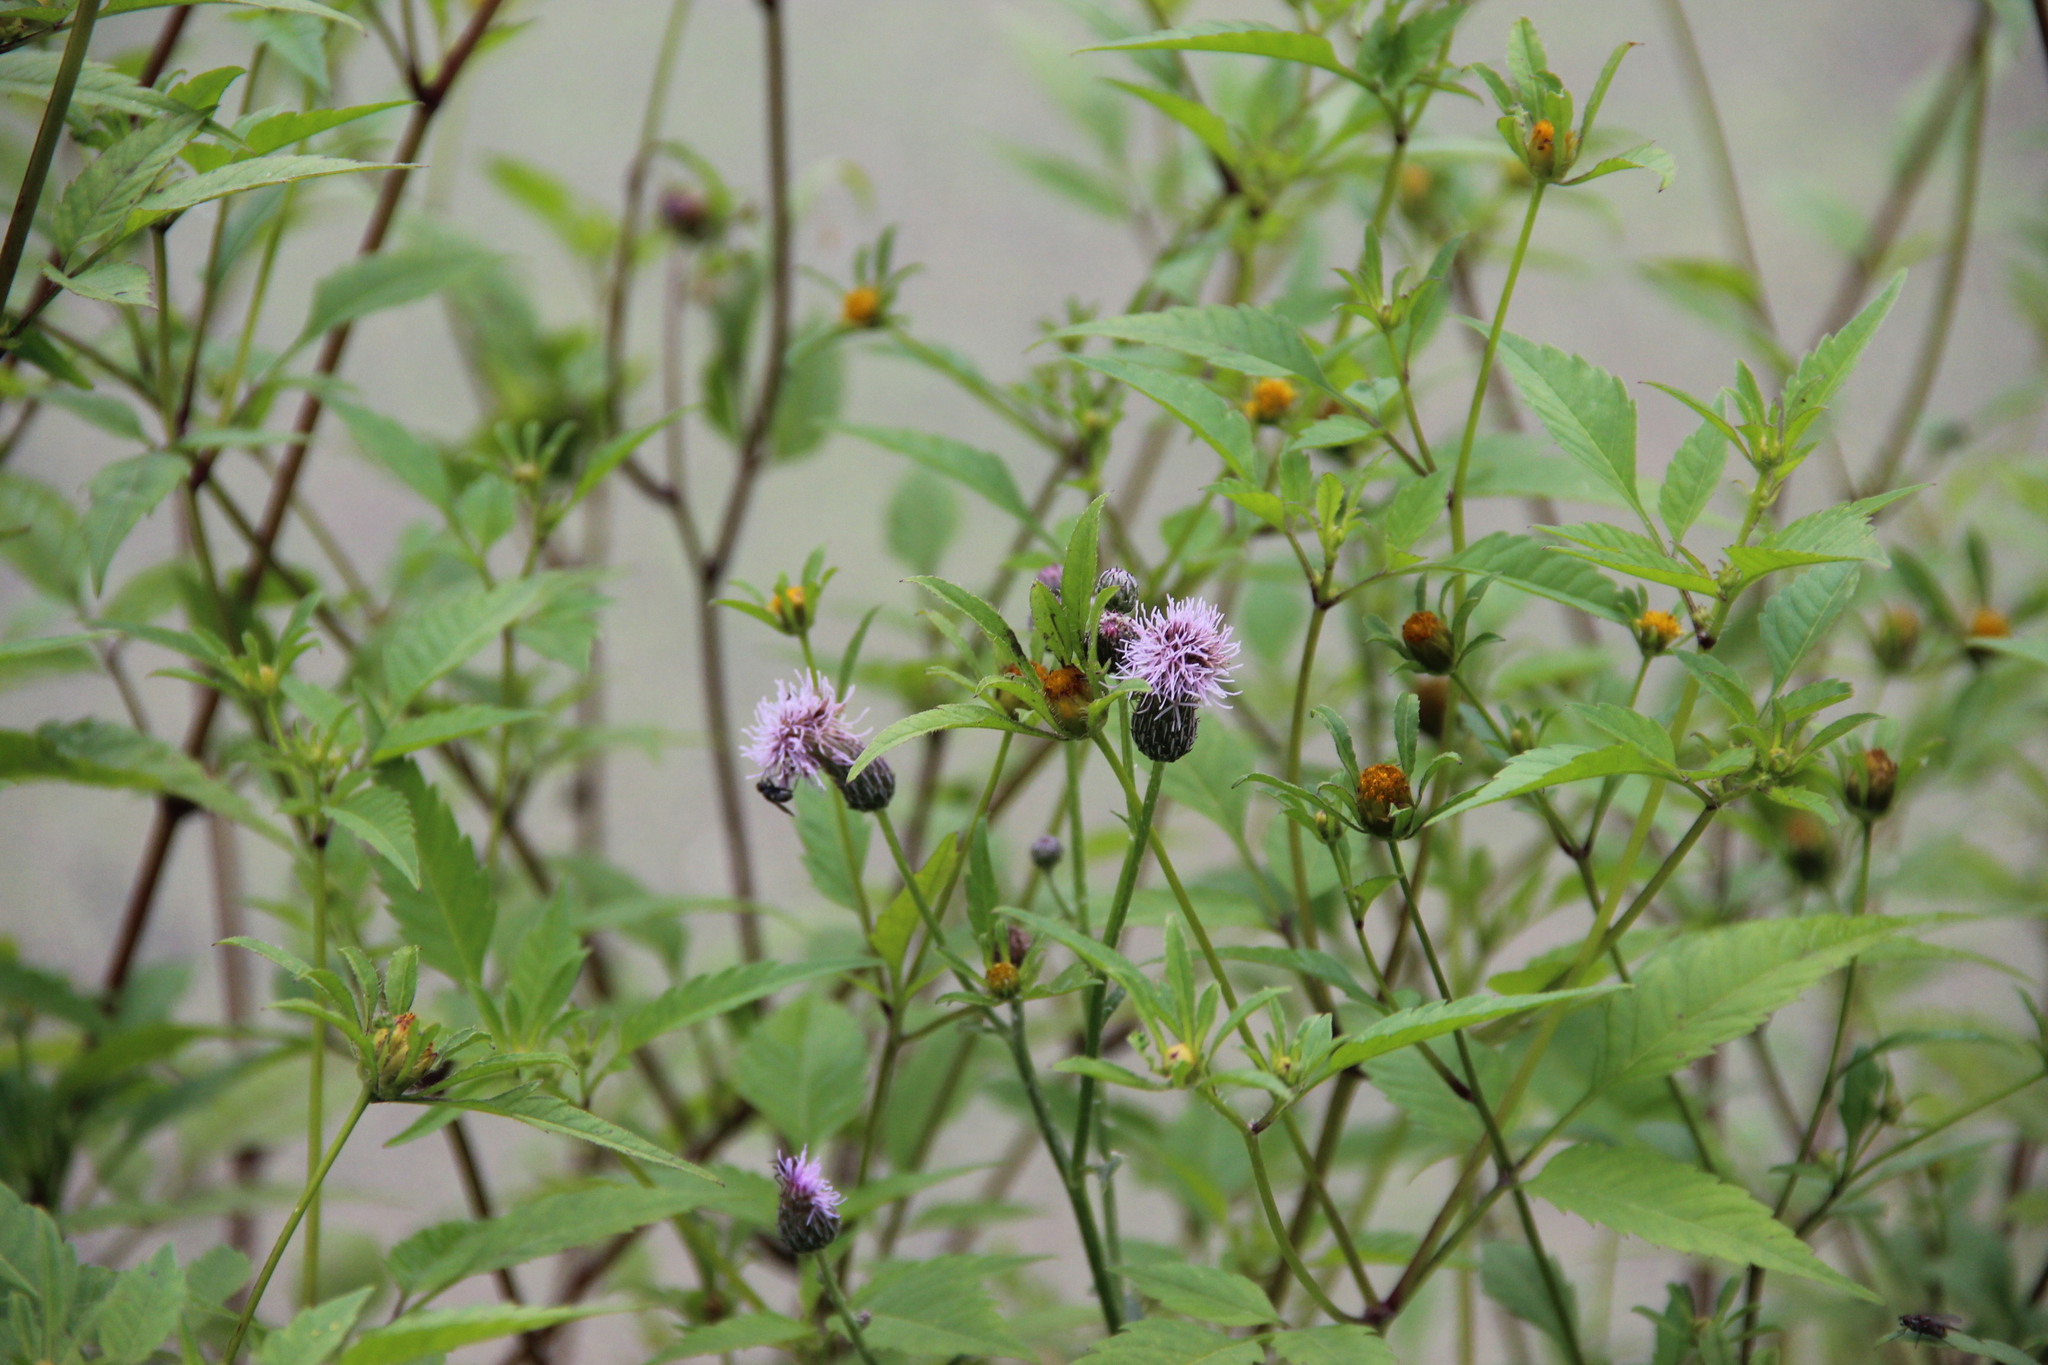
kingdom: Plantae
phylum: Tracheophyta
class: Magnoliopsida
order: Asterales
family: Asteraceae
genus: Bidens
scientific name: Bidens frondosa
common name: Beggarticks
